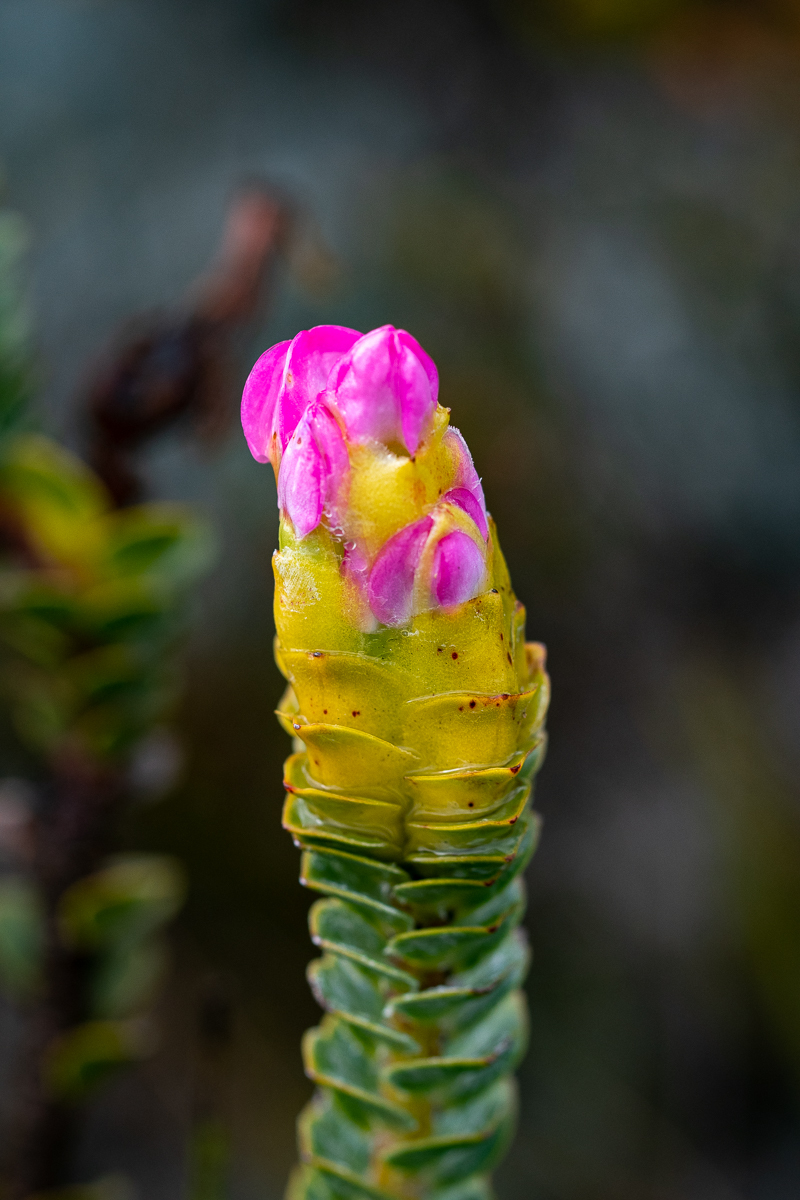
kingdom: Plantae
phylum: Tracheophyta
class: Magnoliopsida
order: Myrtales
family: Penaeaceae
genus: Saltera
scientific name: Saltera sarcocolla
